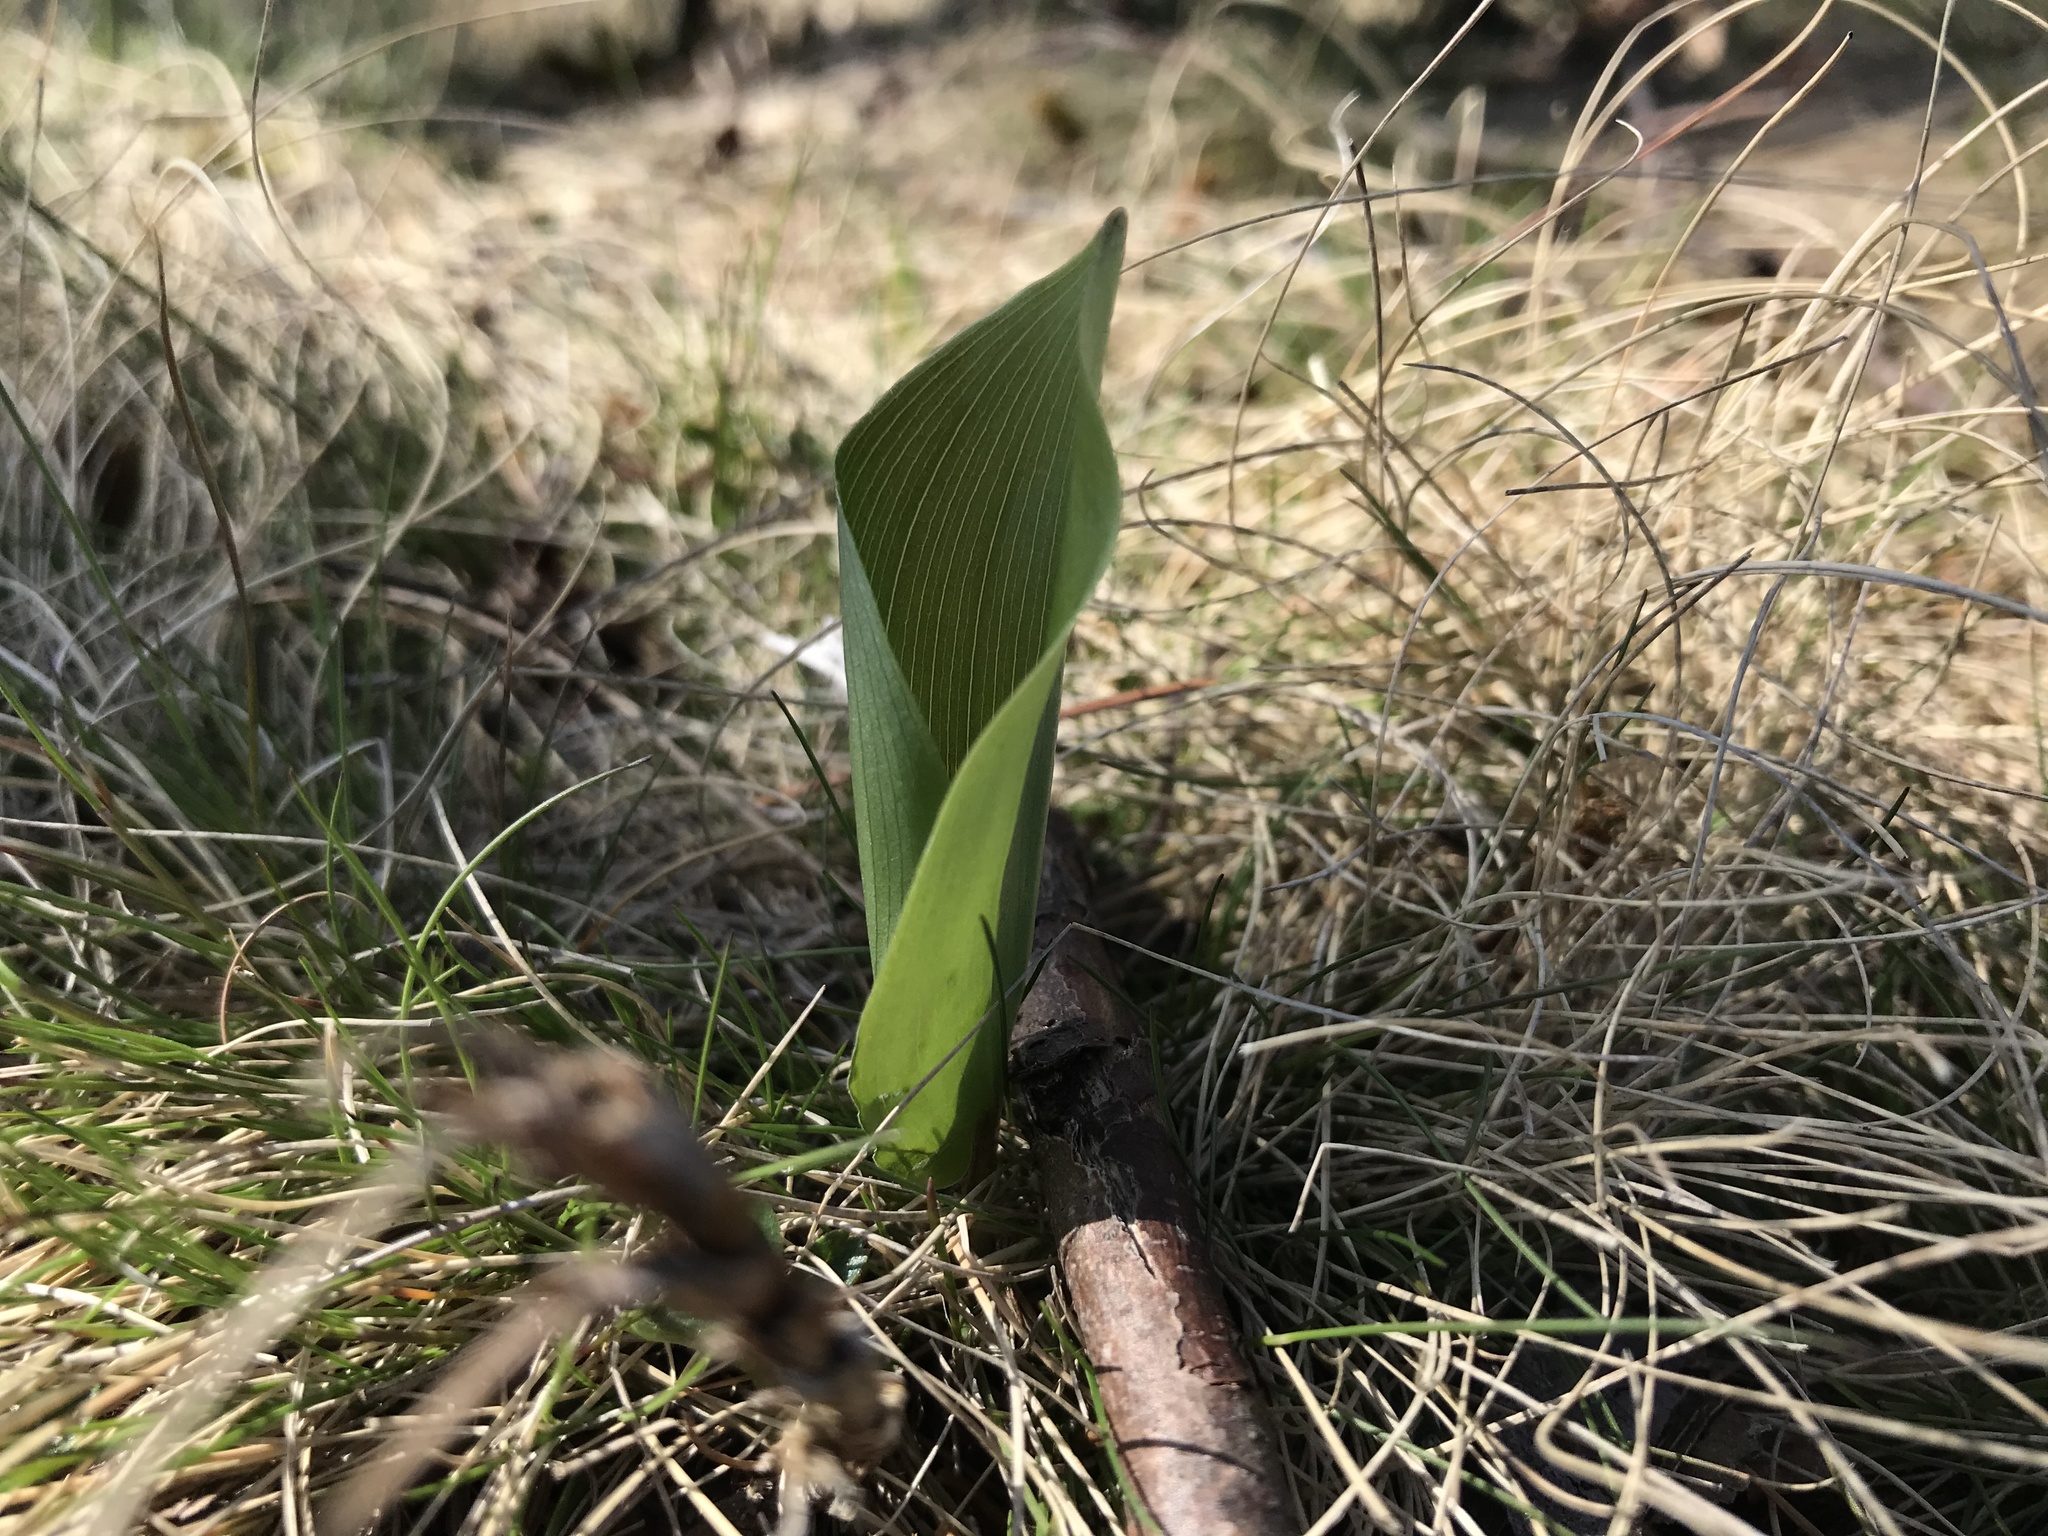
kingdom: Plantae
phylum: Tracheophyta
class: Liliopsida
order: Asparagales
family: Asparagaceae
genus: Maianthemum
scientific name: Maianthemum canadense
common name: False lily-of-the-valley
